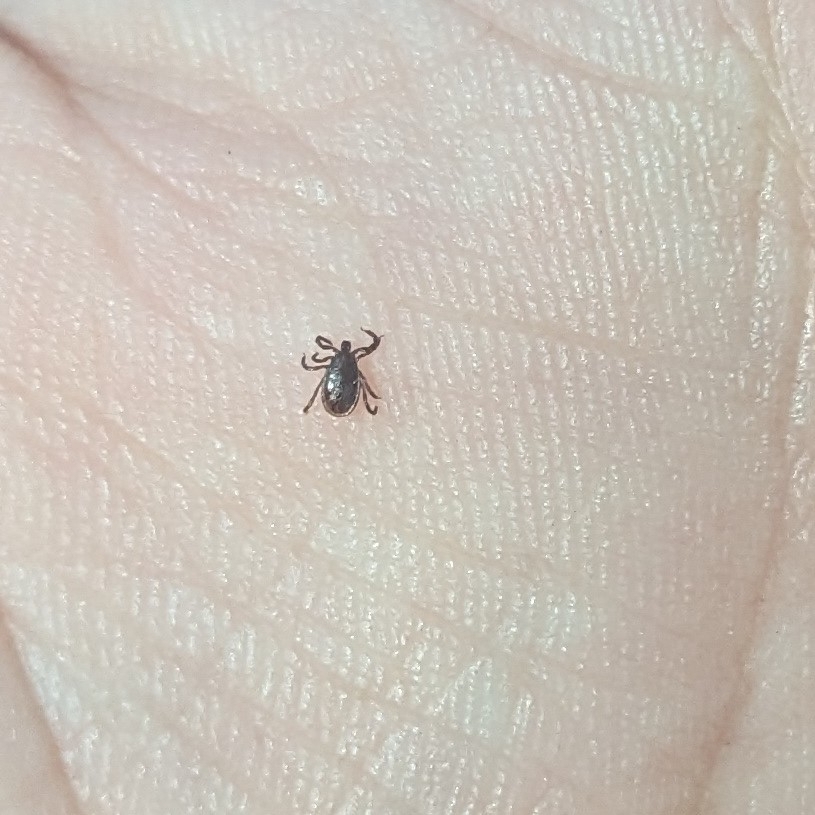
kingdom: Animalia
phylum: Arthropoda
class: Arachnida
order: Ixodida
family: Ixodidae
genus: Ixodes
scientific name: Ixodes scapularis
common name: Black legged tick
